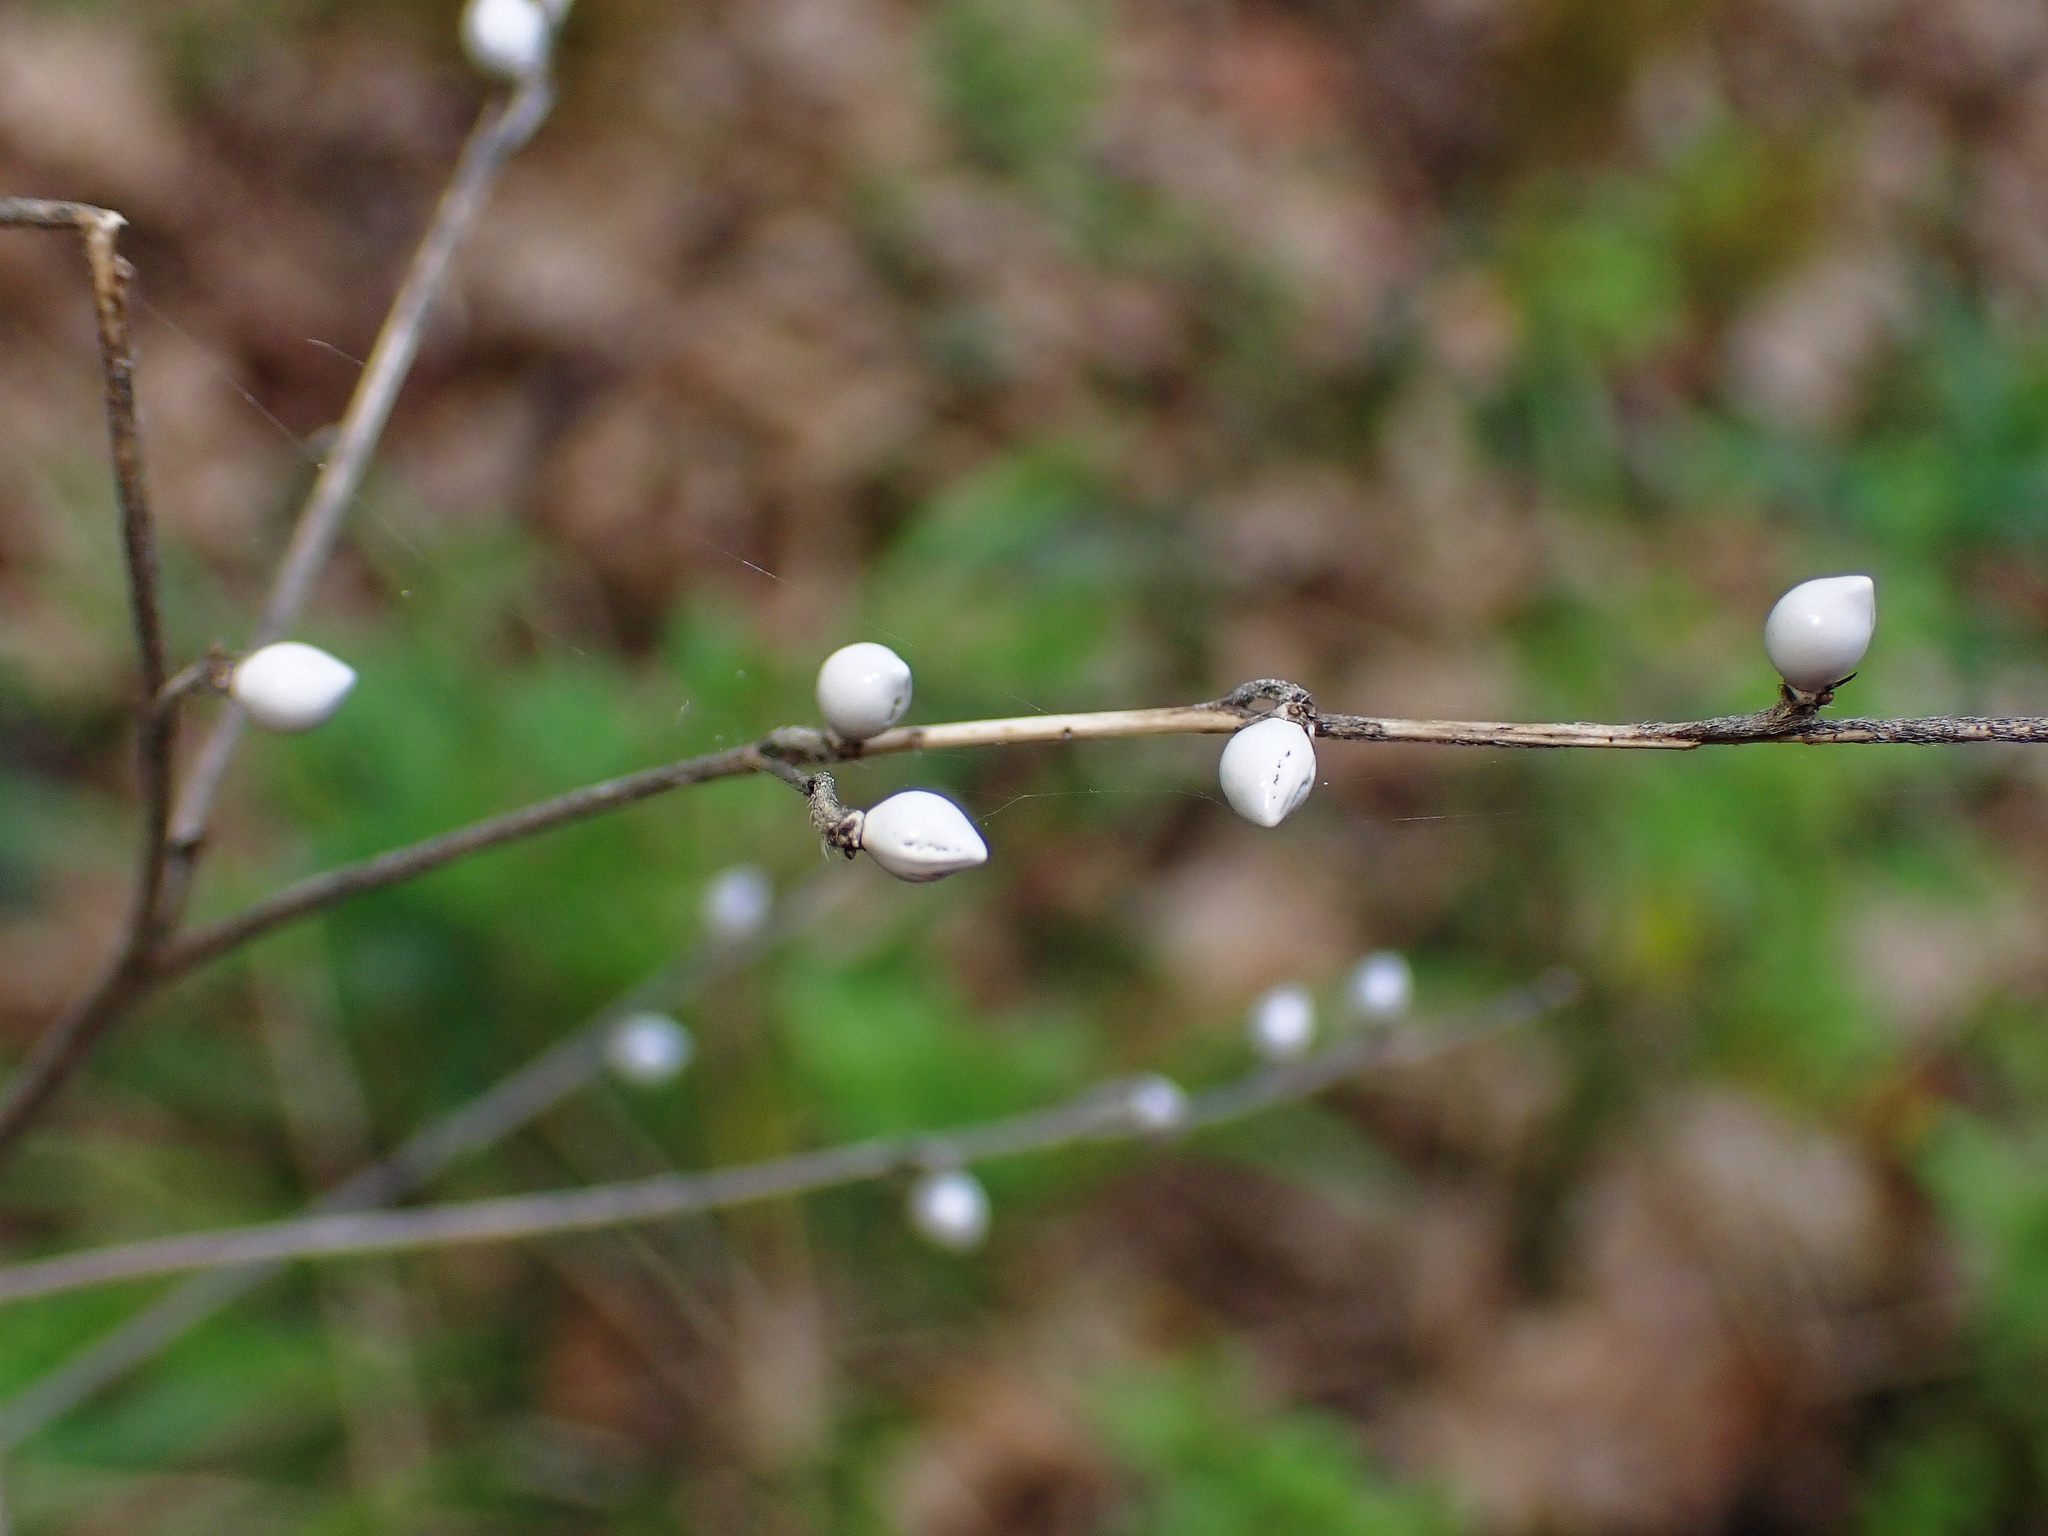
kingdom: Plantae
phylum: Tracheophyta
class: Magnoliopsida
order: Boraginales
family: Boraginaceae
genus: Lithospermum
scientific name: Lithospermum officinale
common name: Common gromwell
